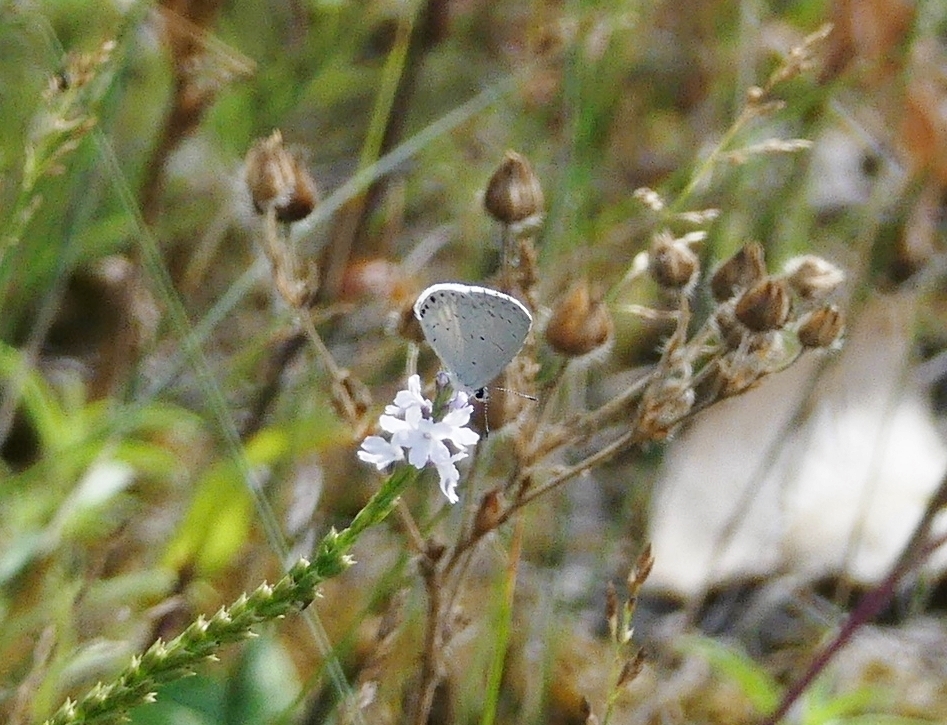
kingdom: Animalia
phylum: Arthropoda
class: Insecta
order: Lepidoptera
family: Lycaenidae
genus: Cyaniris
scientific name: Cyaniris neglecta
